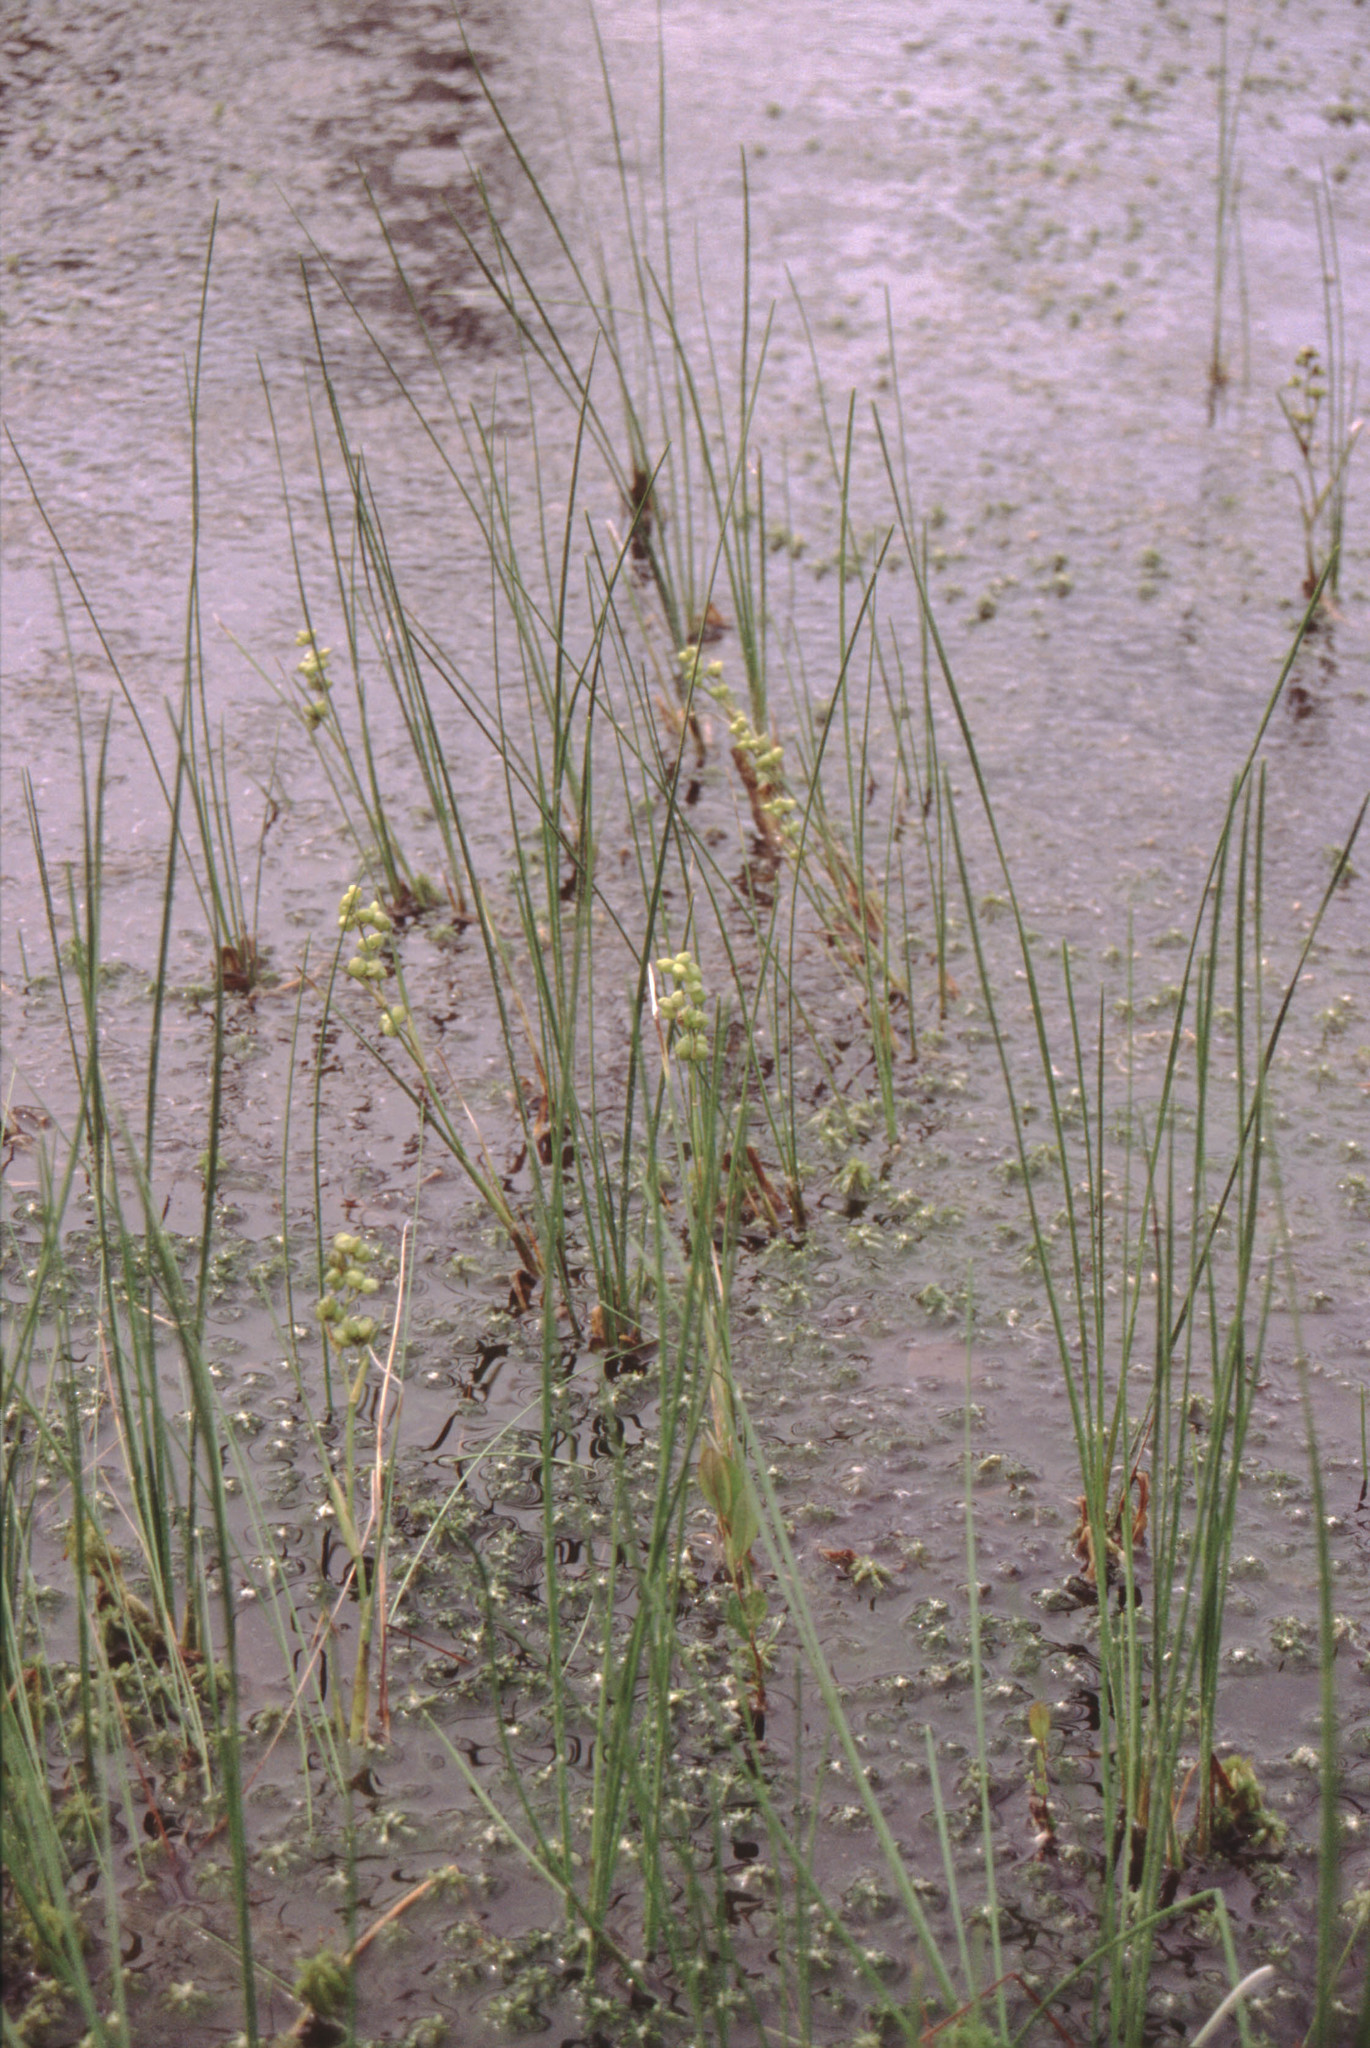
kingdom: Plantae
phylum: Tracheophyta
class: Liliopsida
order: Alismatales
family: Scheuchzeriaceae
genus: Scheuchzeria
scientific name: Scheuchzeria palustris
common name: Rannoch-rush
